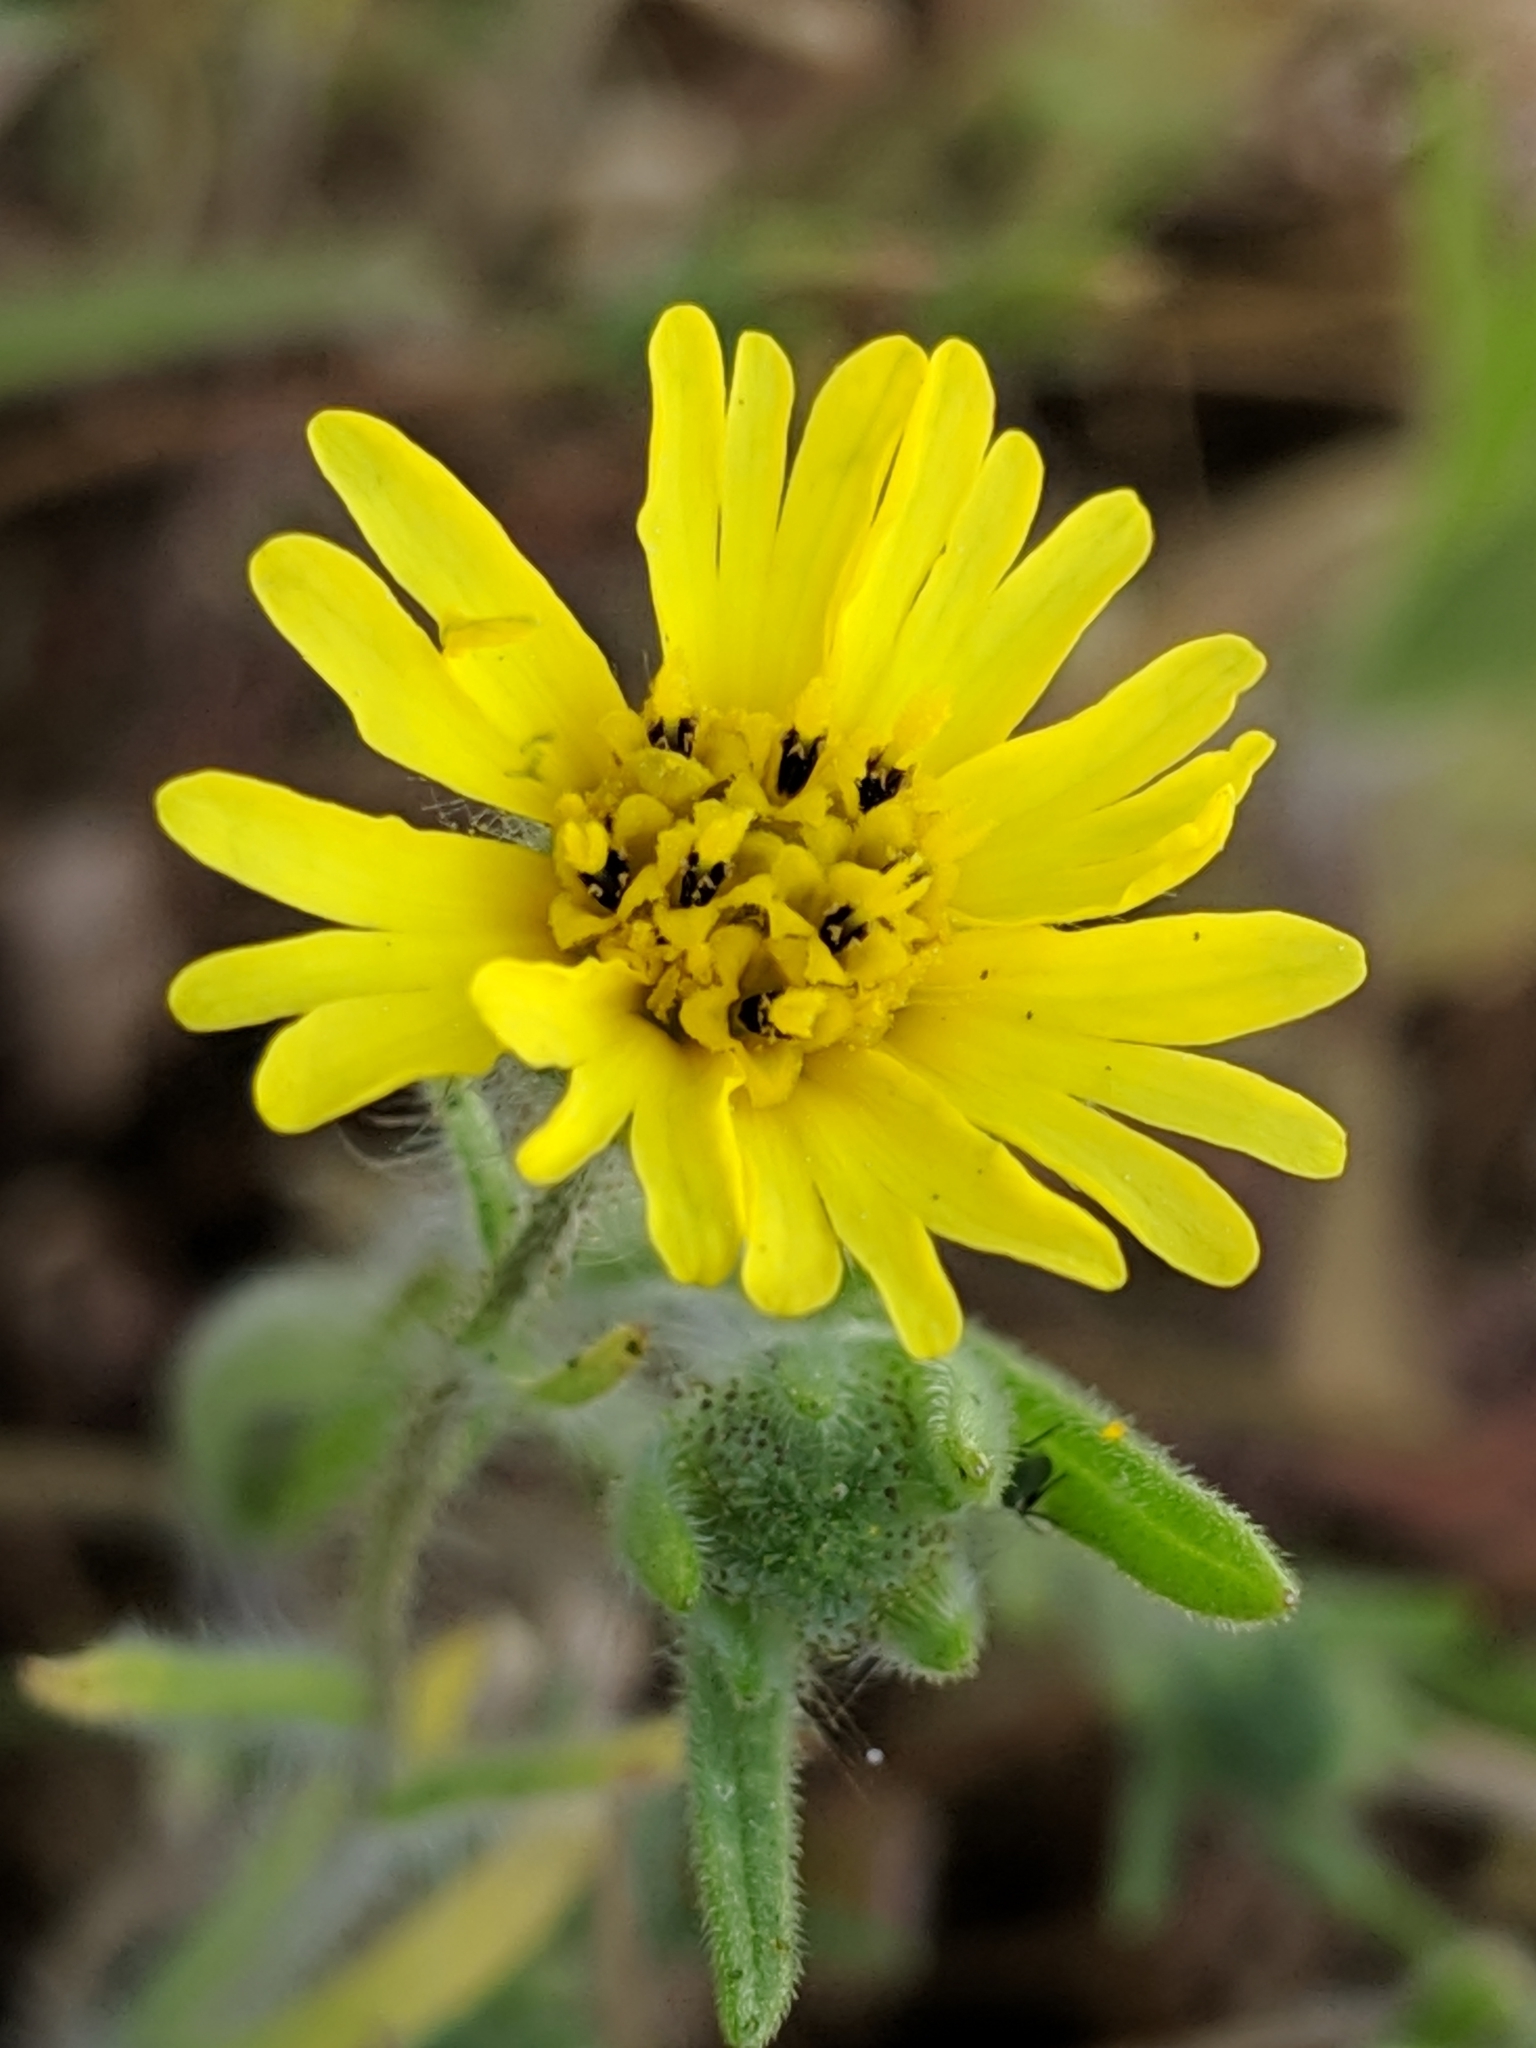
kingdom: Plantae
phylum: Tracheophyta
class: Magnoliopsida
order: Asterales
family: Asteraceae
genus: Madia
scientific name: Madia elegans
